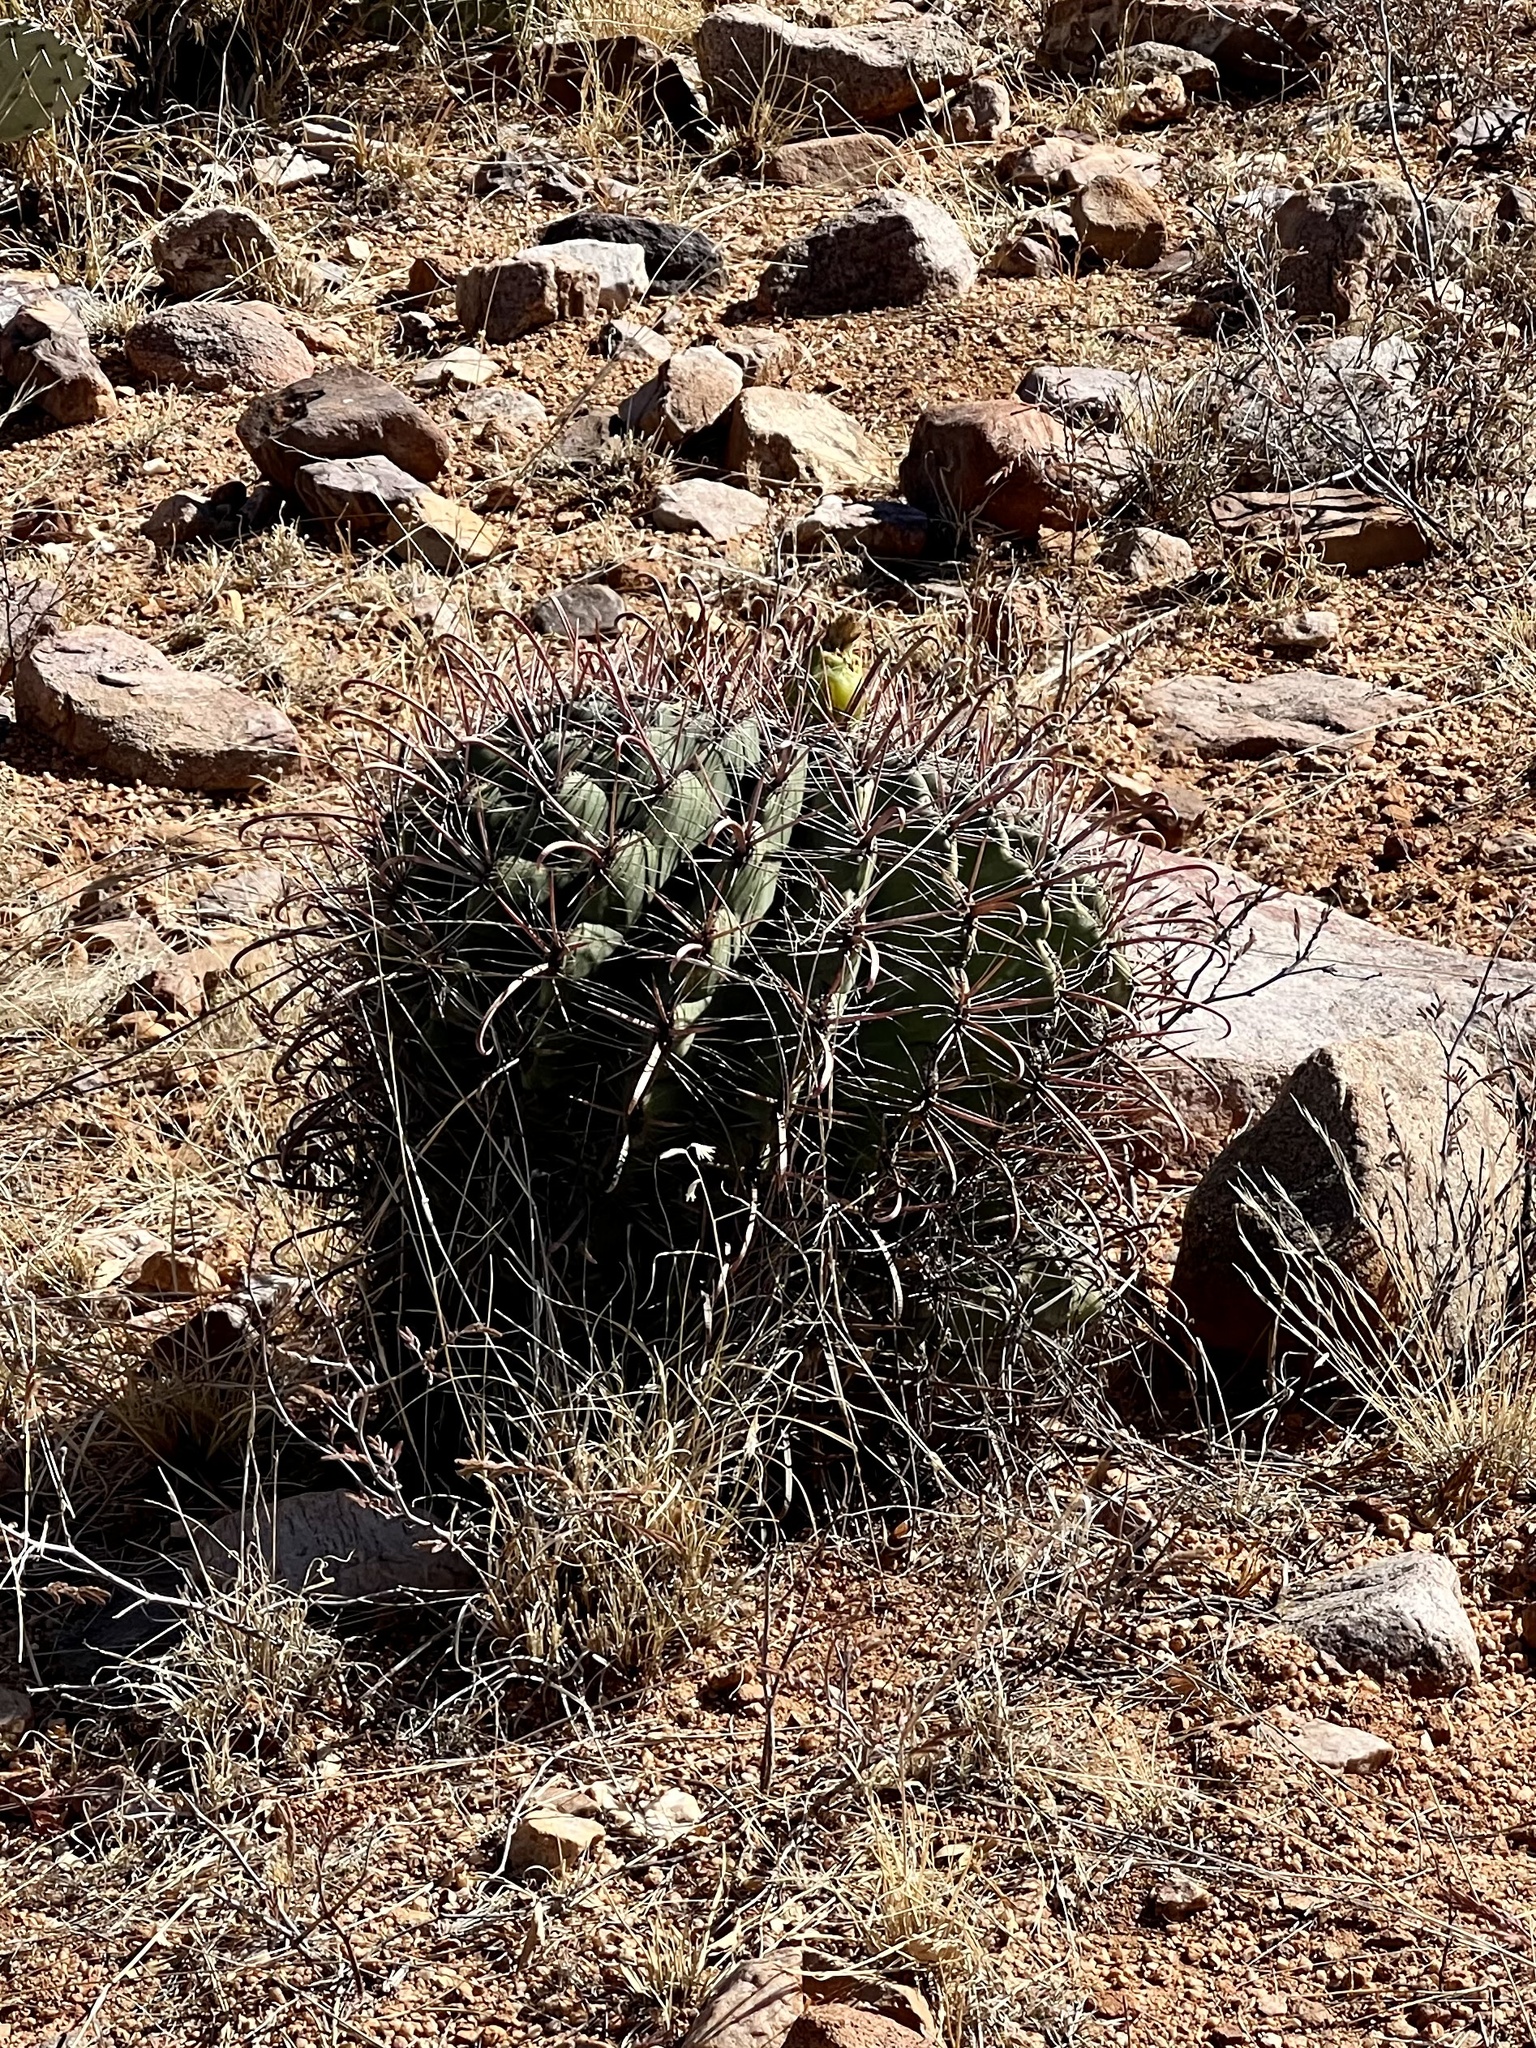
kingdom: Plantae
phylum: Tracheophyta
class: Magnoliopsida
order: Caryophyllales
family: Cactaceae
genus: Ferocactus
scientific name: Ferocactus wislizeni
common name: Candy barrel cactus
